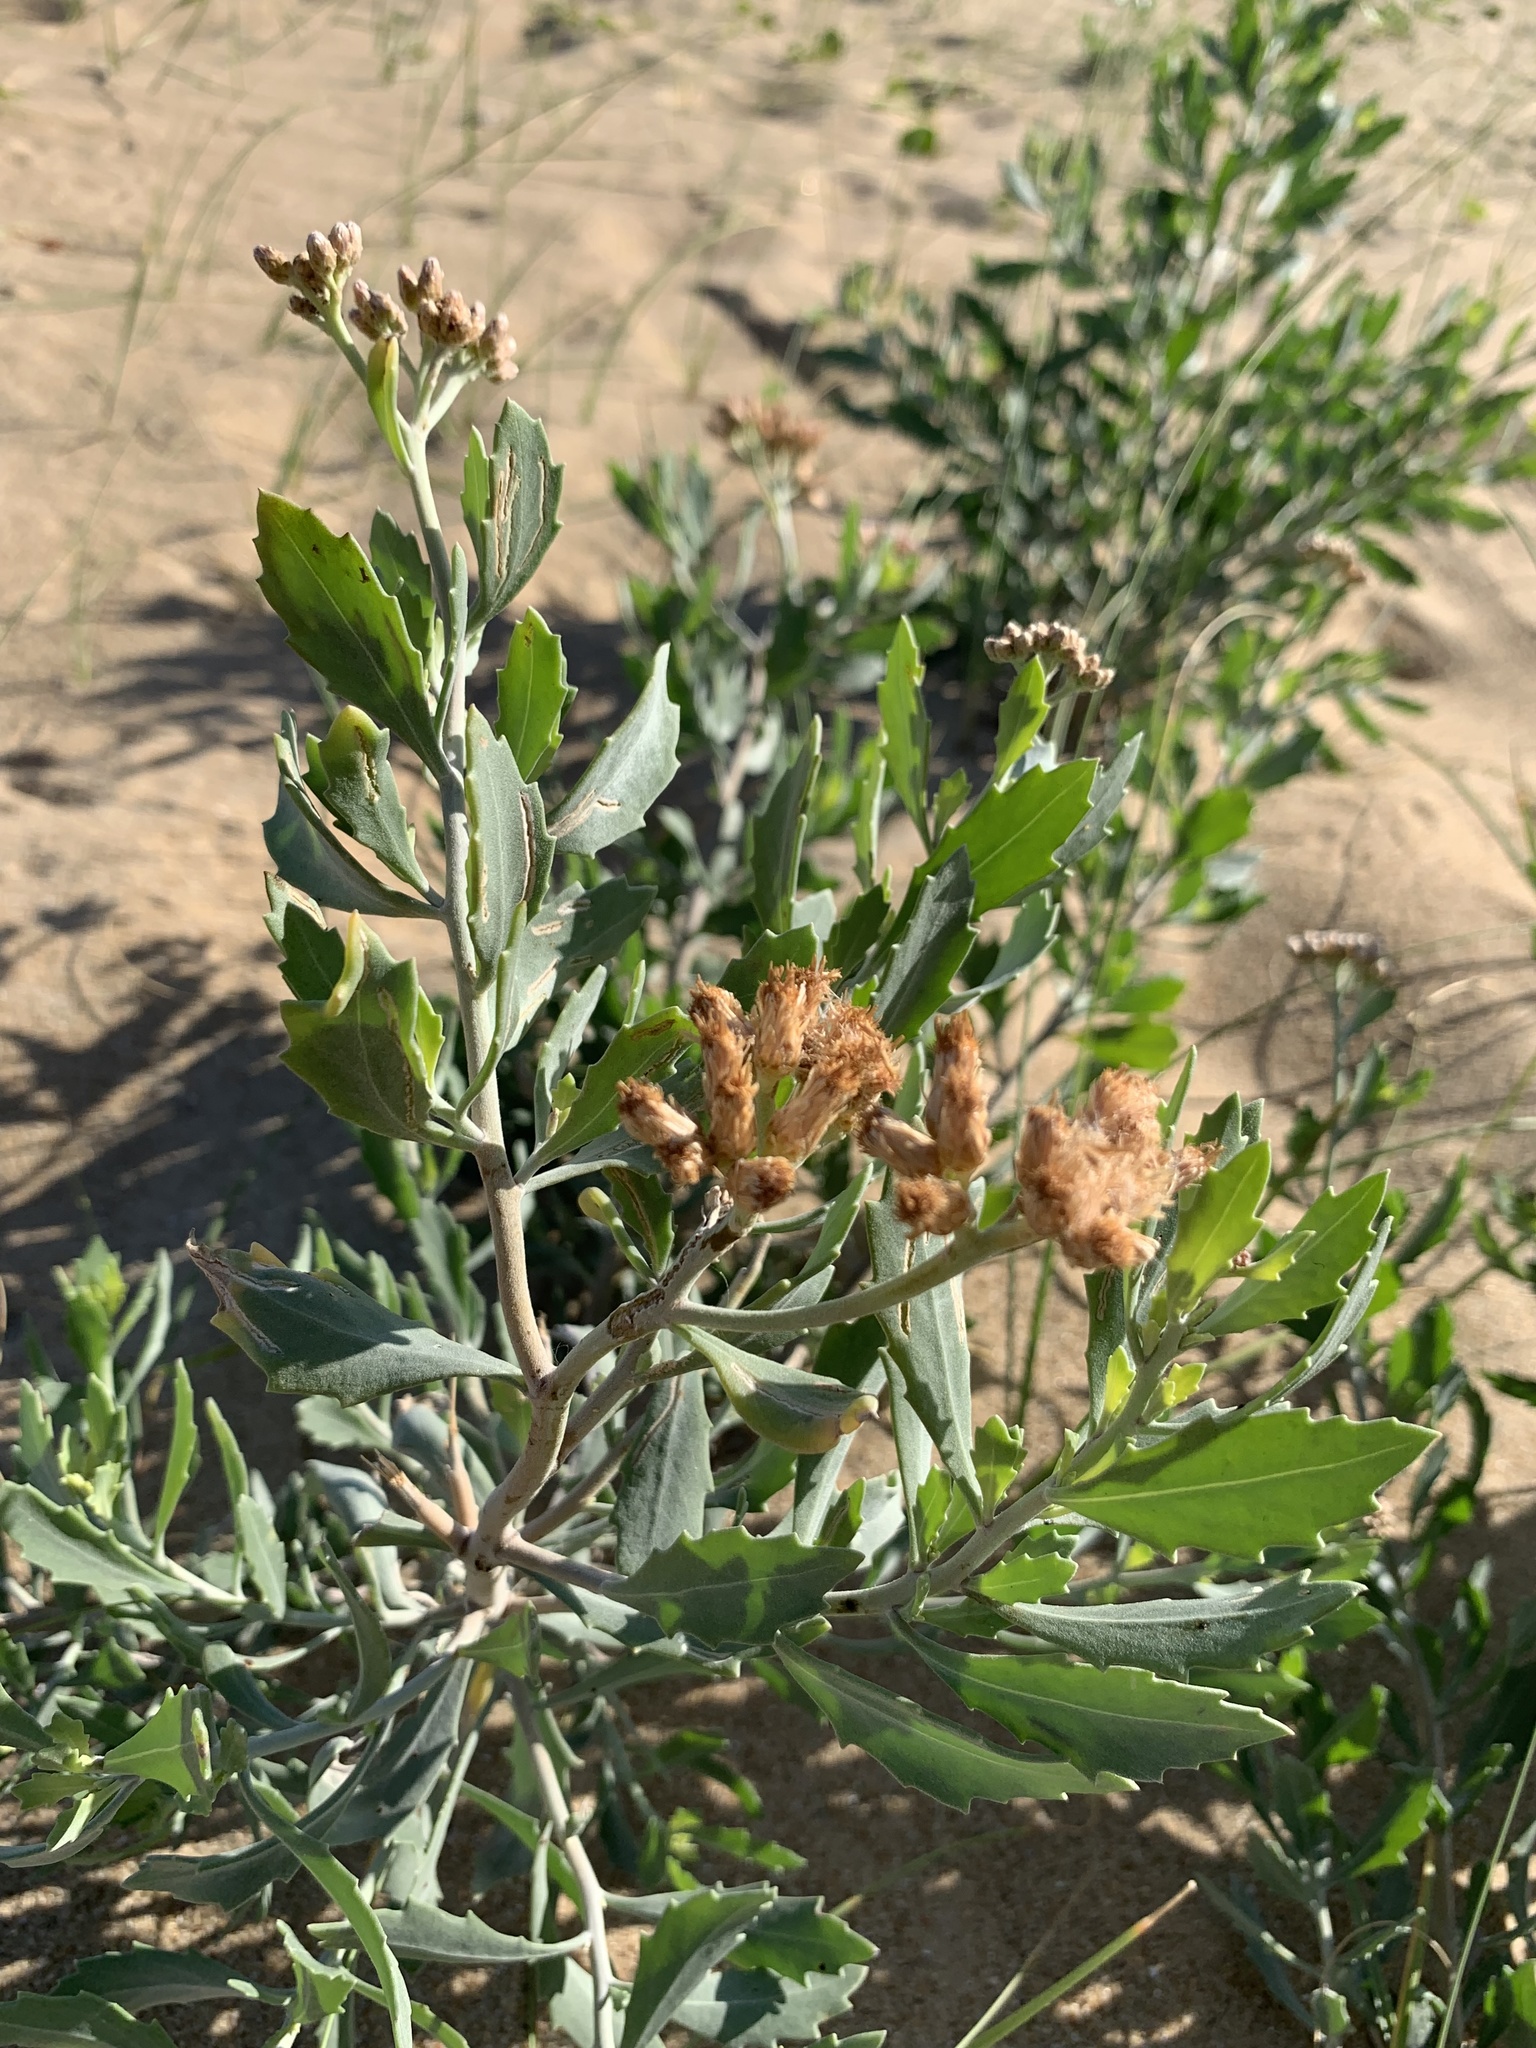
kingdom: Plantae
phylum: Tracheophyta
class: Magnoliopsida
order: Asterales
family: Asteraceae
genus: Tessaria
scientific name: Tessaria absinthioides
